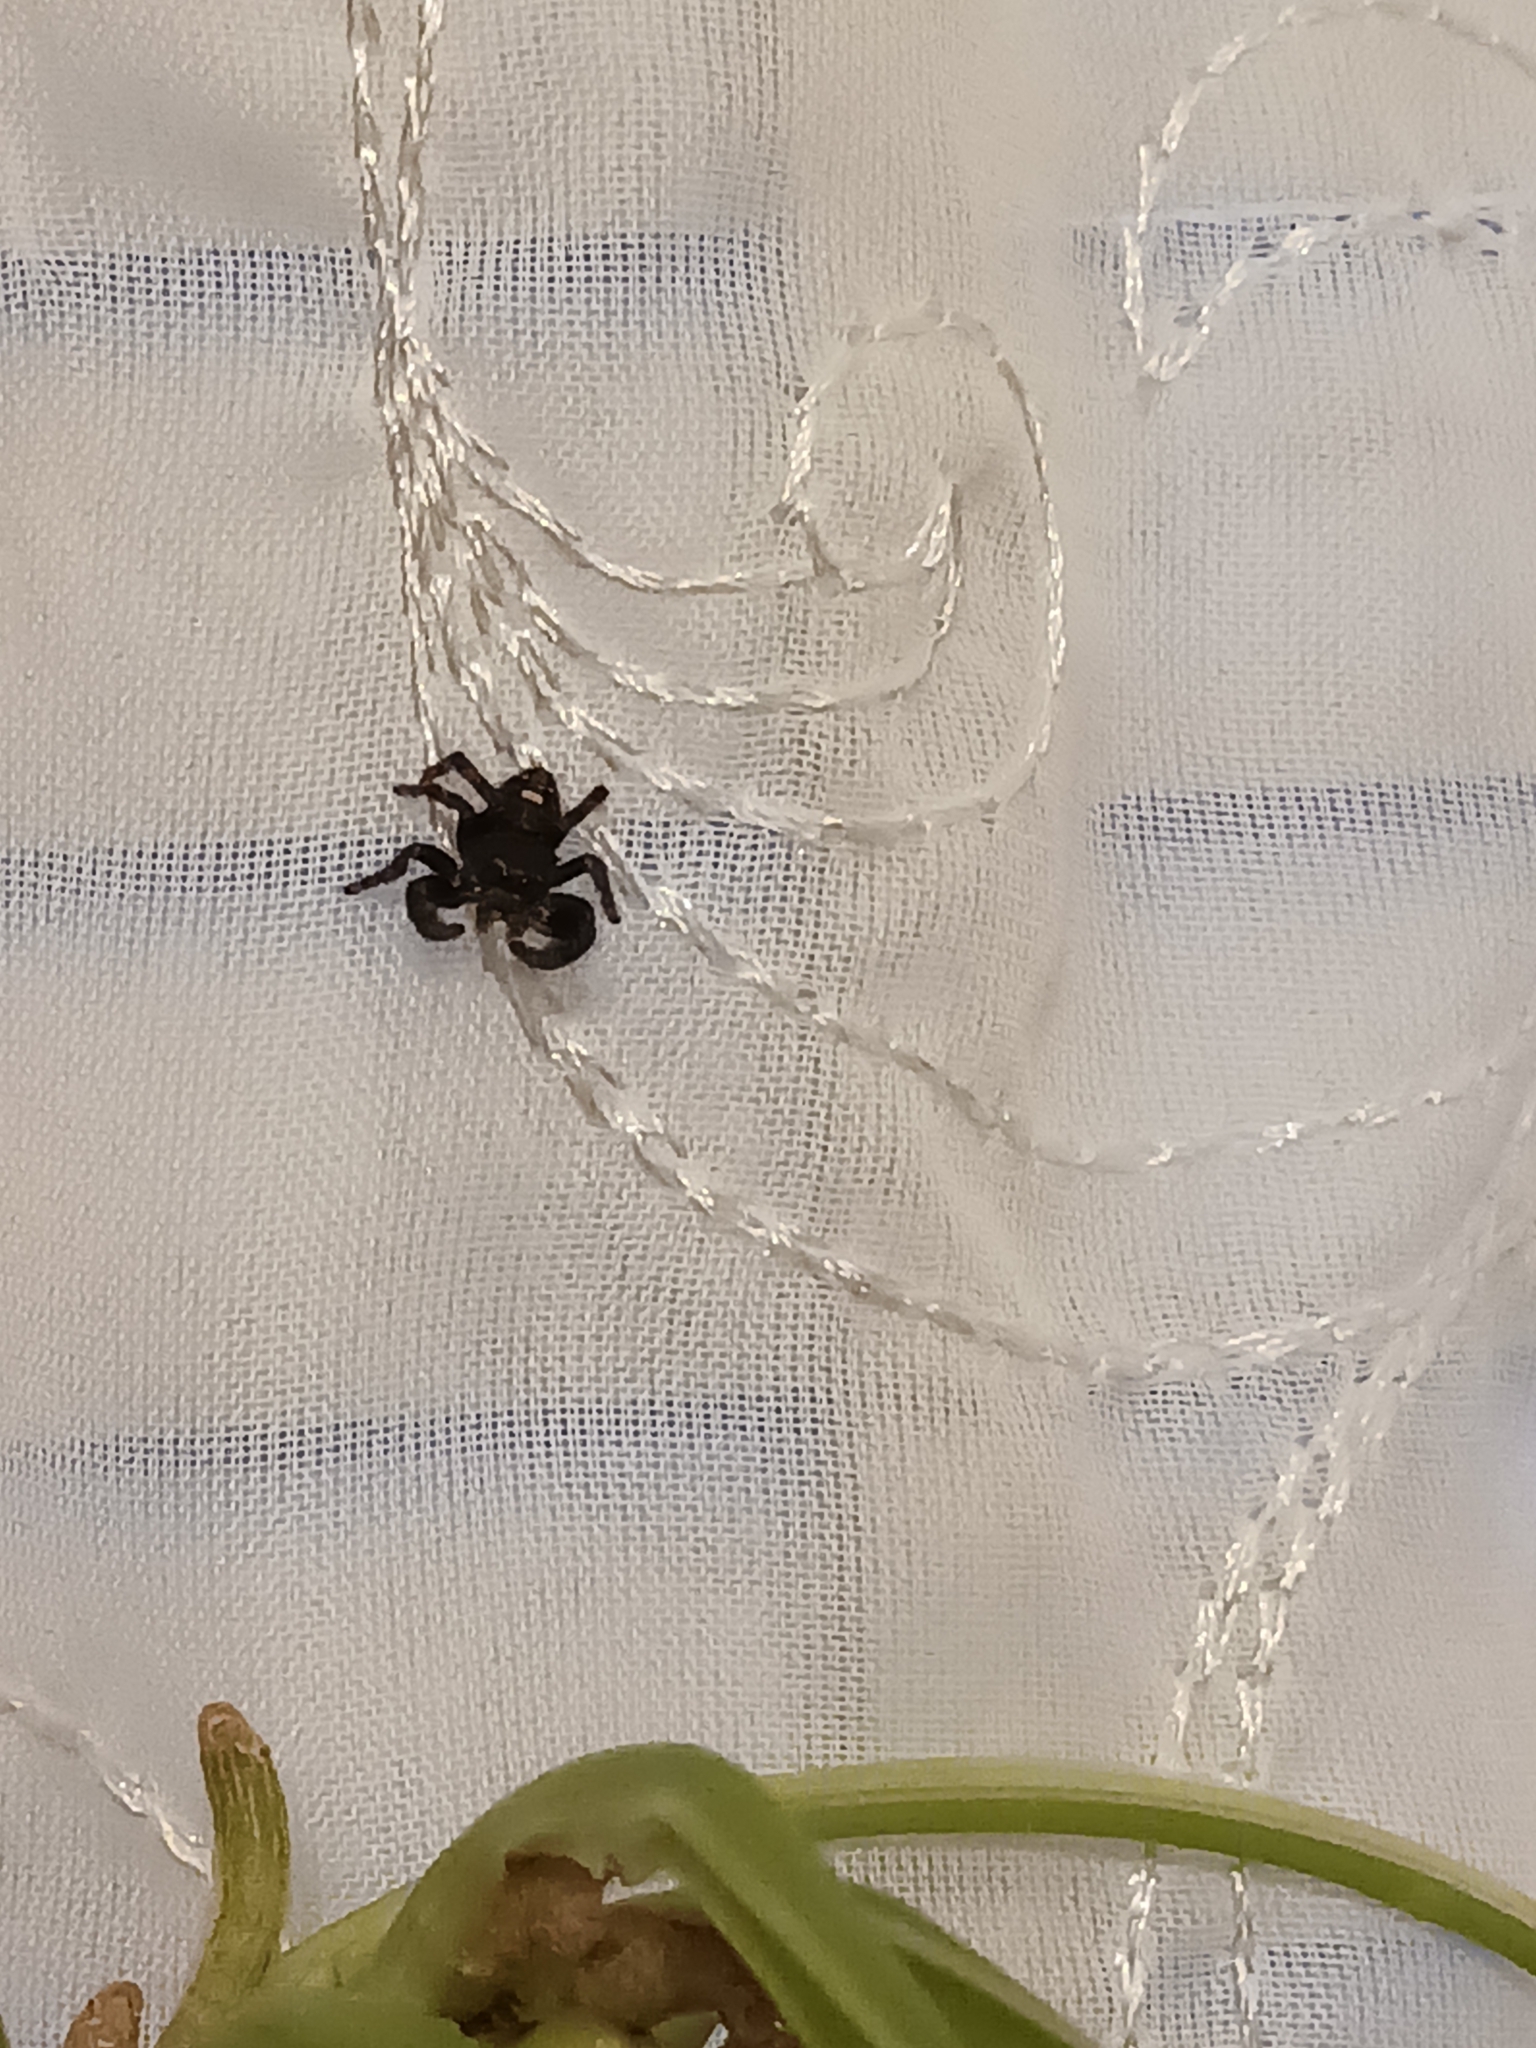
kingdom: Animalia
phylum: Arthropoda
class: Arachnida
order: Araneae
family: Salticidae
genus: Phidippus
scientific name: Phidippus audax
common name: Bold jumper
